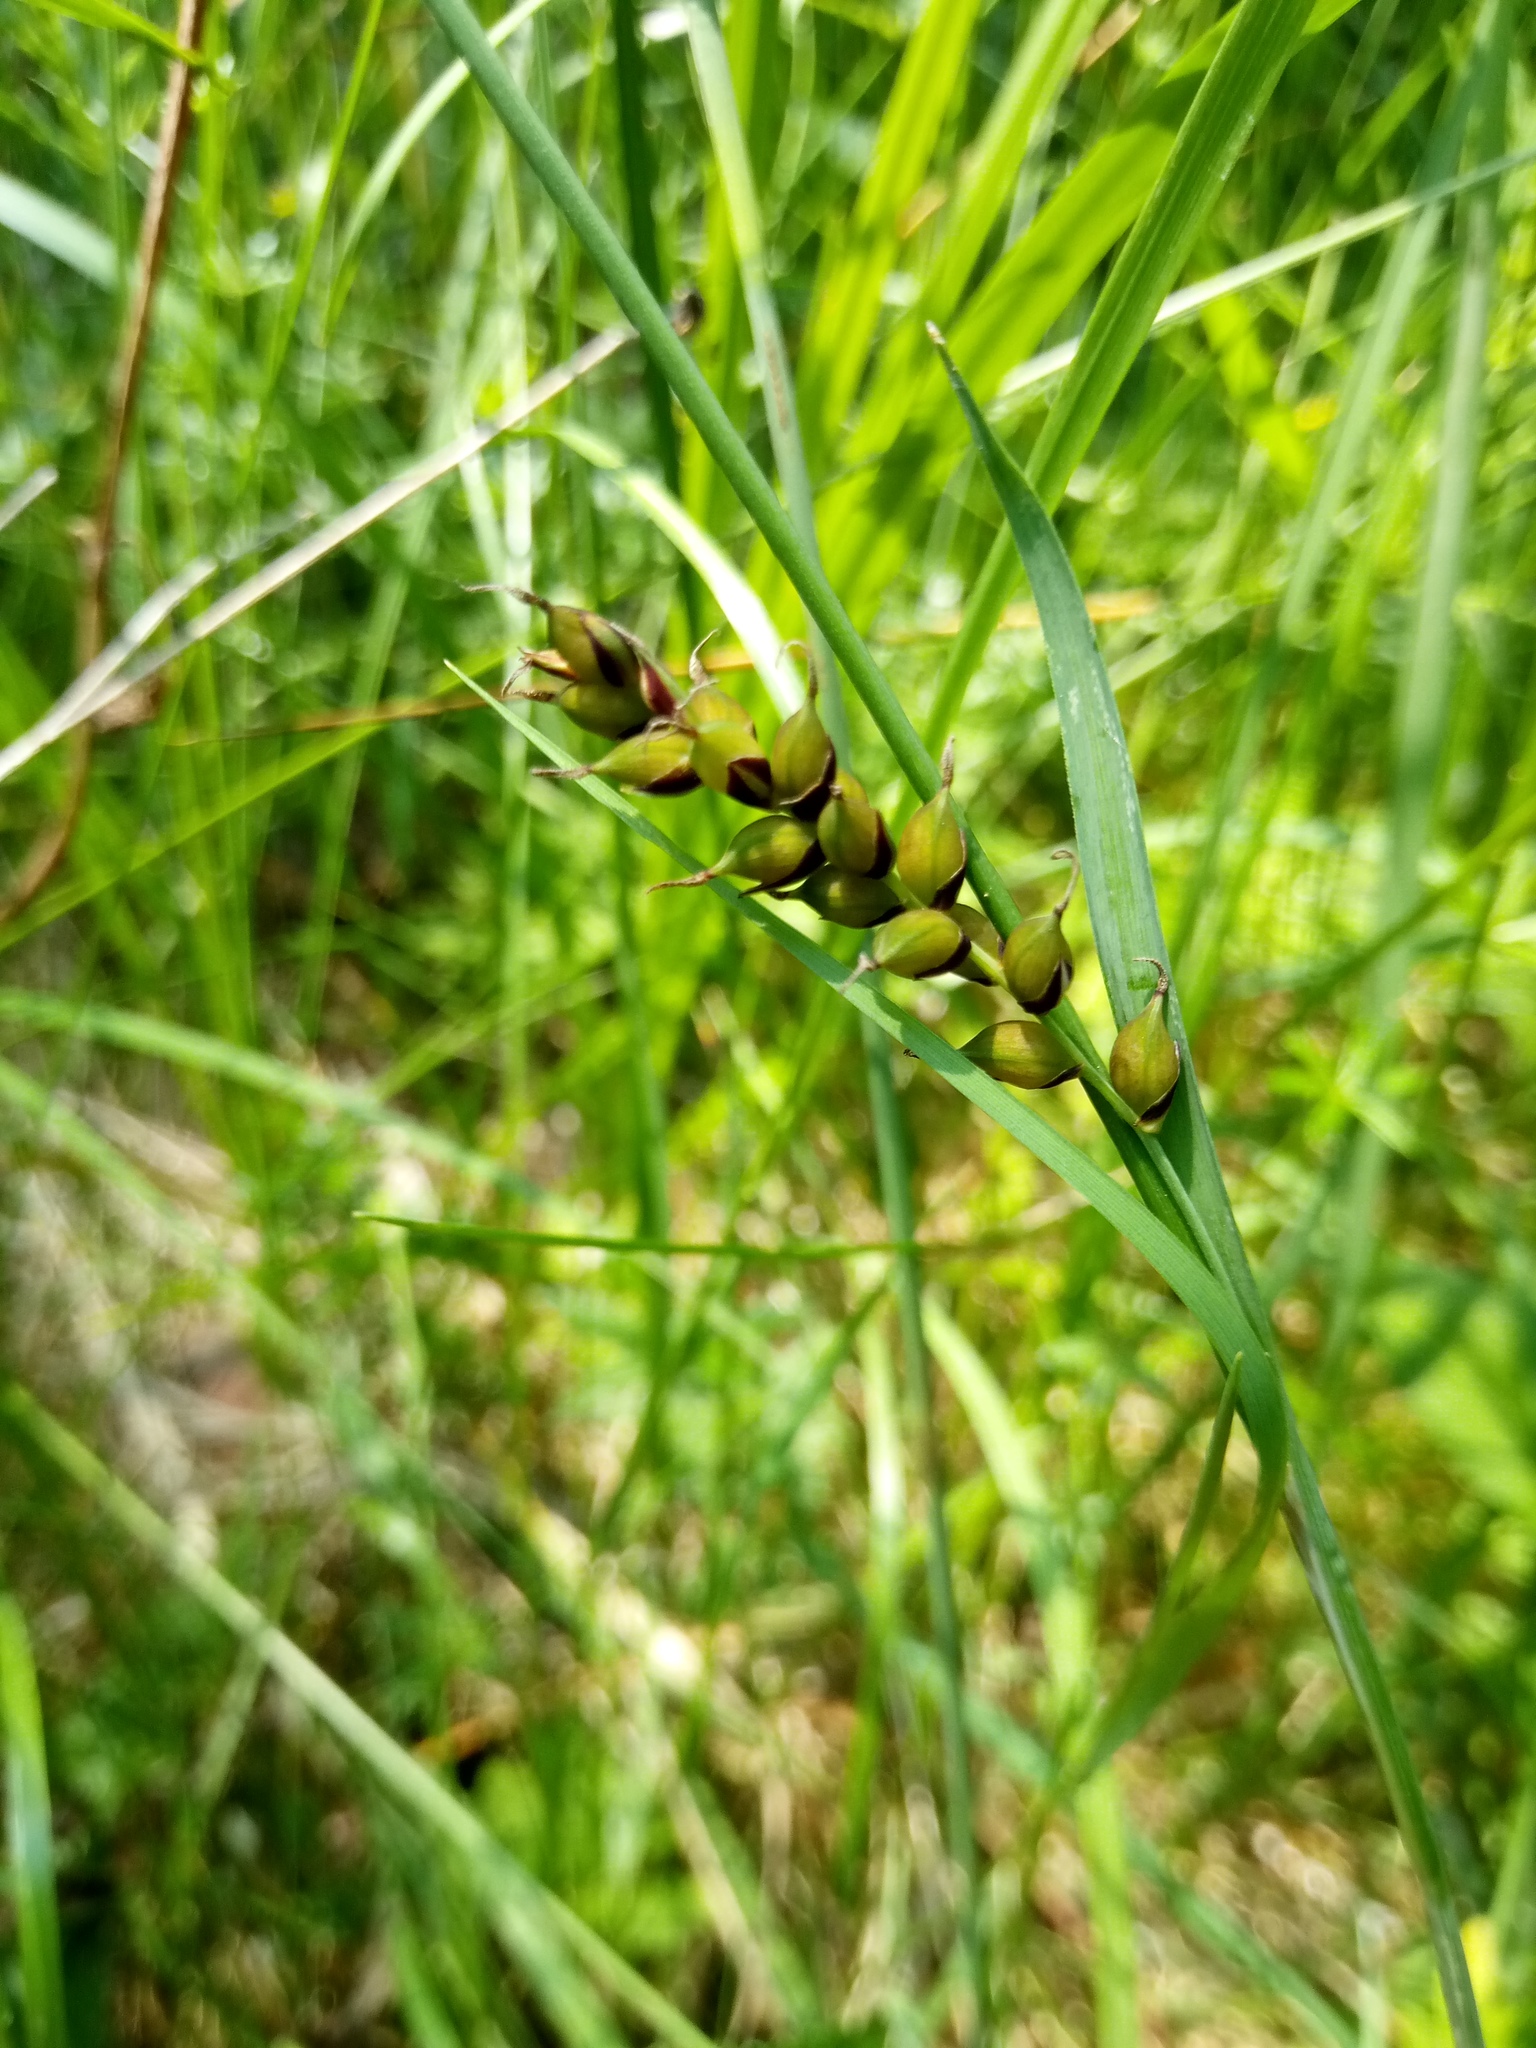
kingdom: Plantae
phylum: Tracheophyta
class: Liliopsida
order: Poales
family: Cyperaceae
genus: Carex
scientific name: Carex panicea
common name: Carnation sedge
